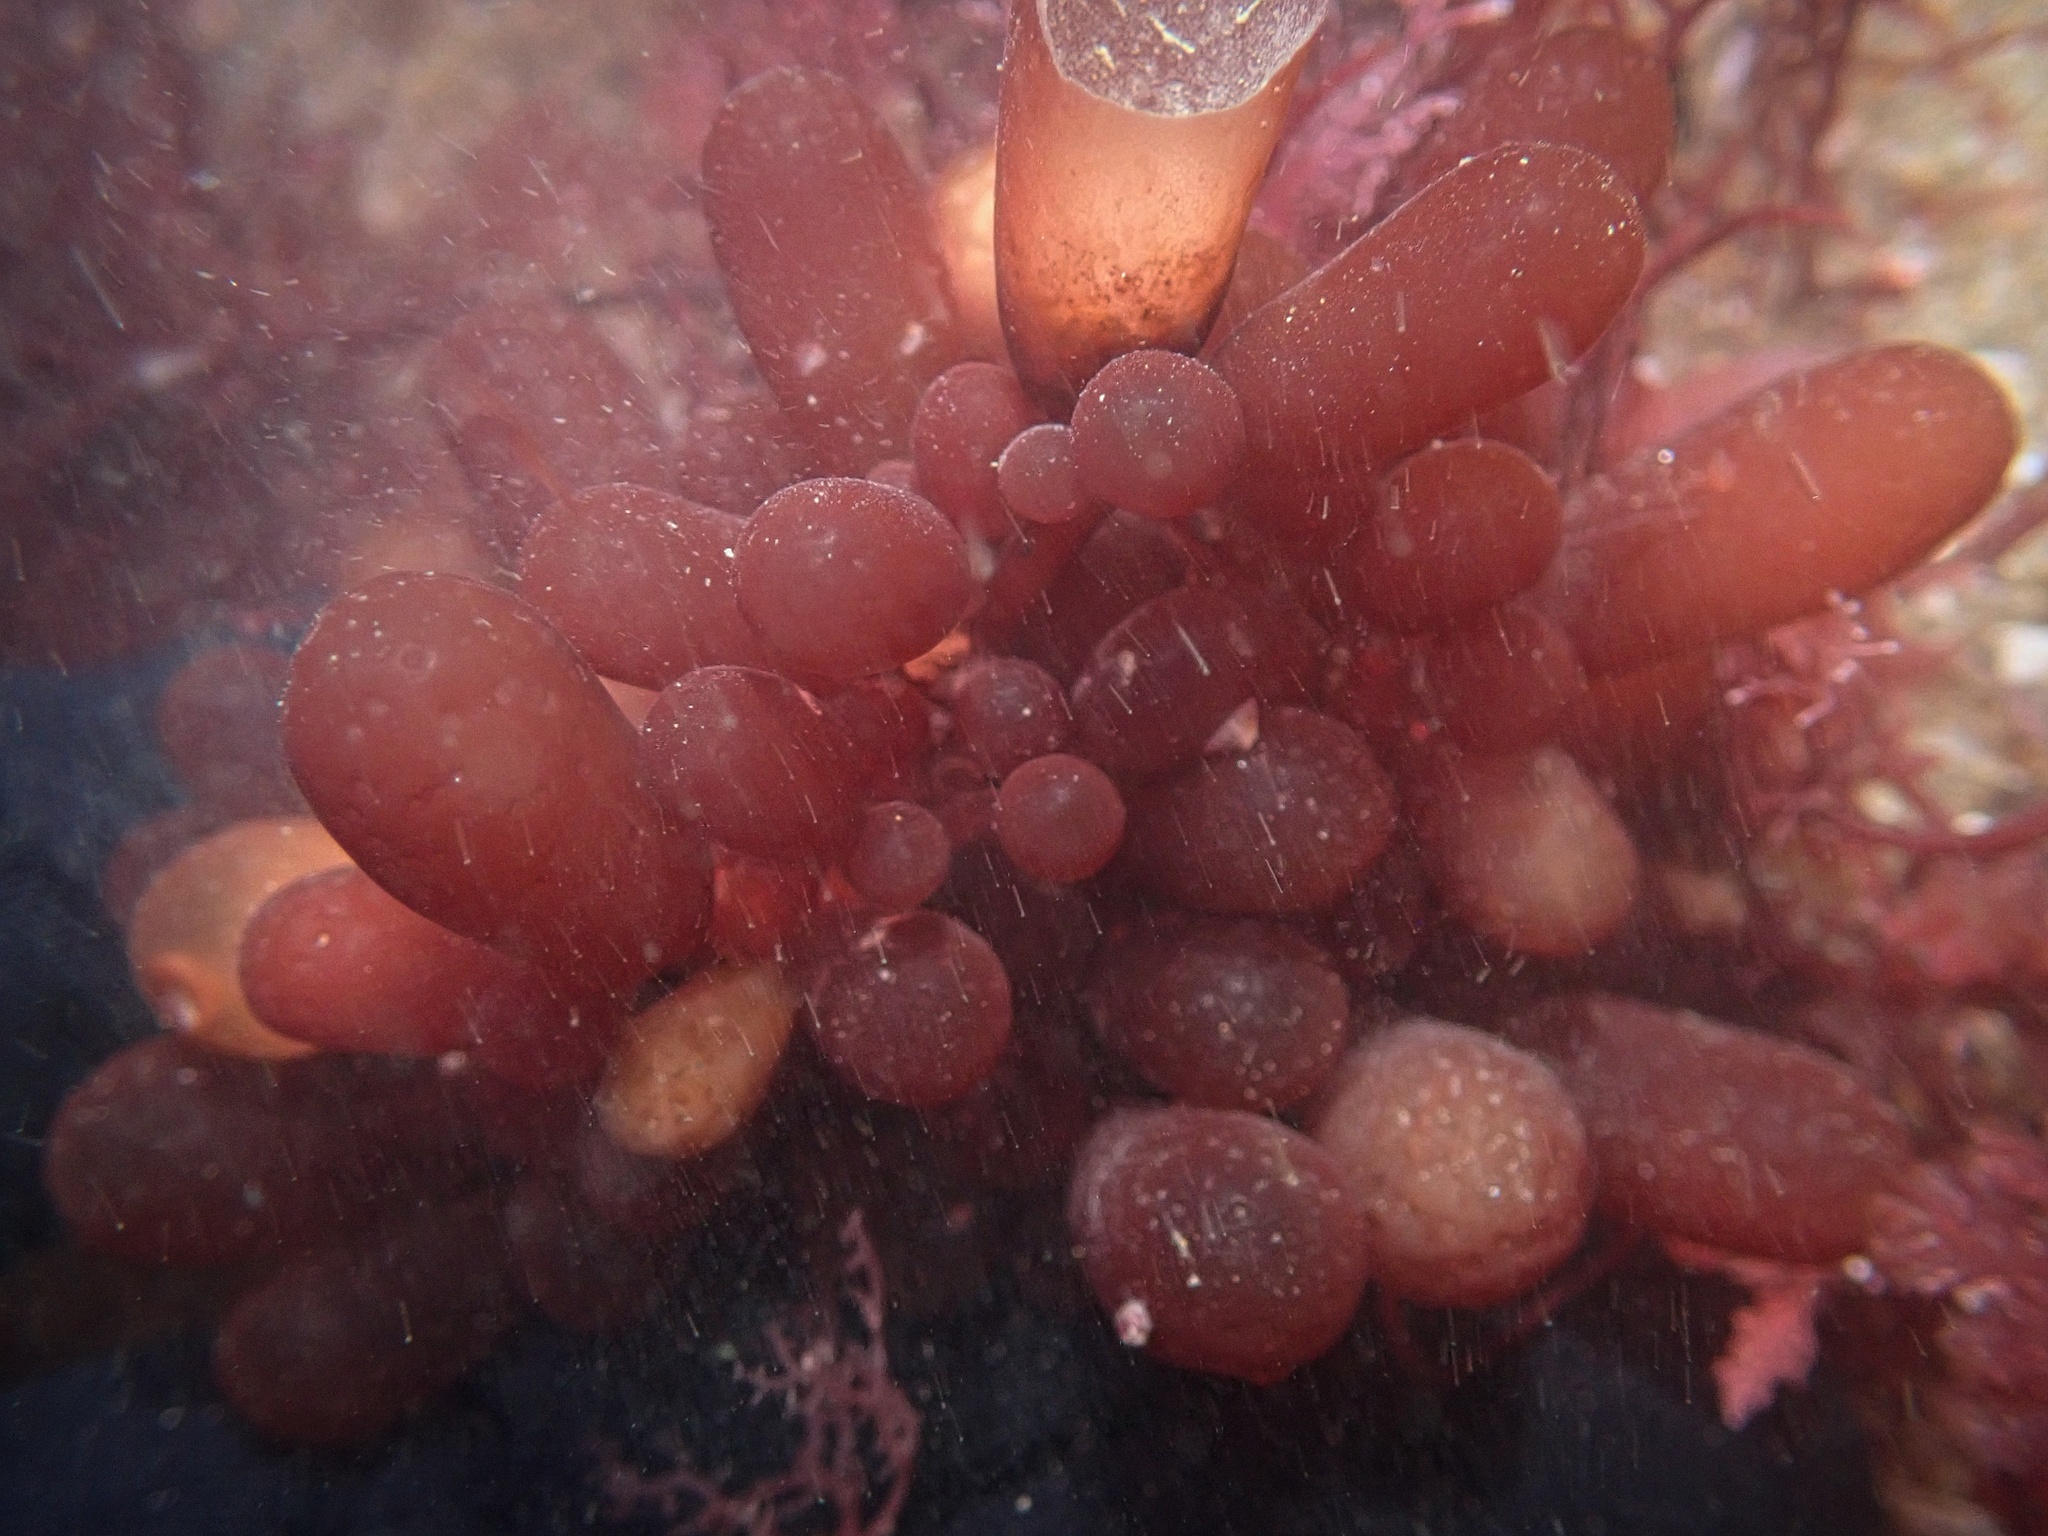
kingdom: Plantae
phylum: Rhodophyta
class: Florideophyceae
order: Rhodymeniales
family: Rhodymeniaceae
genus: Botryocladia
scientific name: Botryocladia pseudodichotoma
